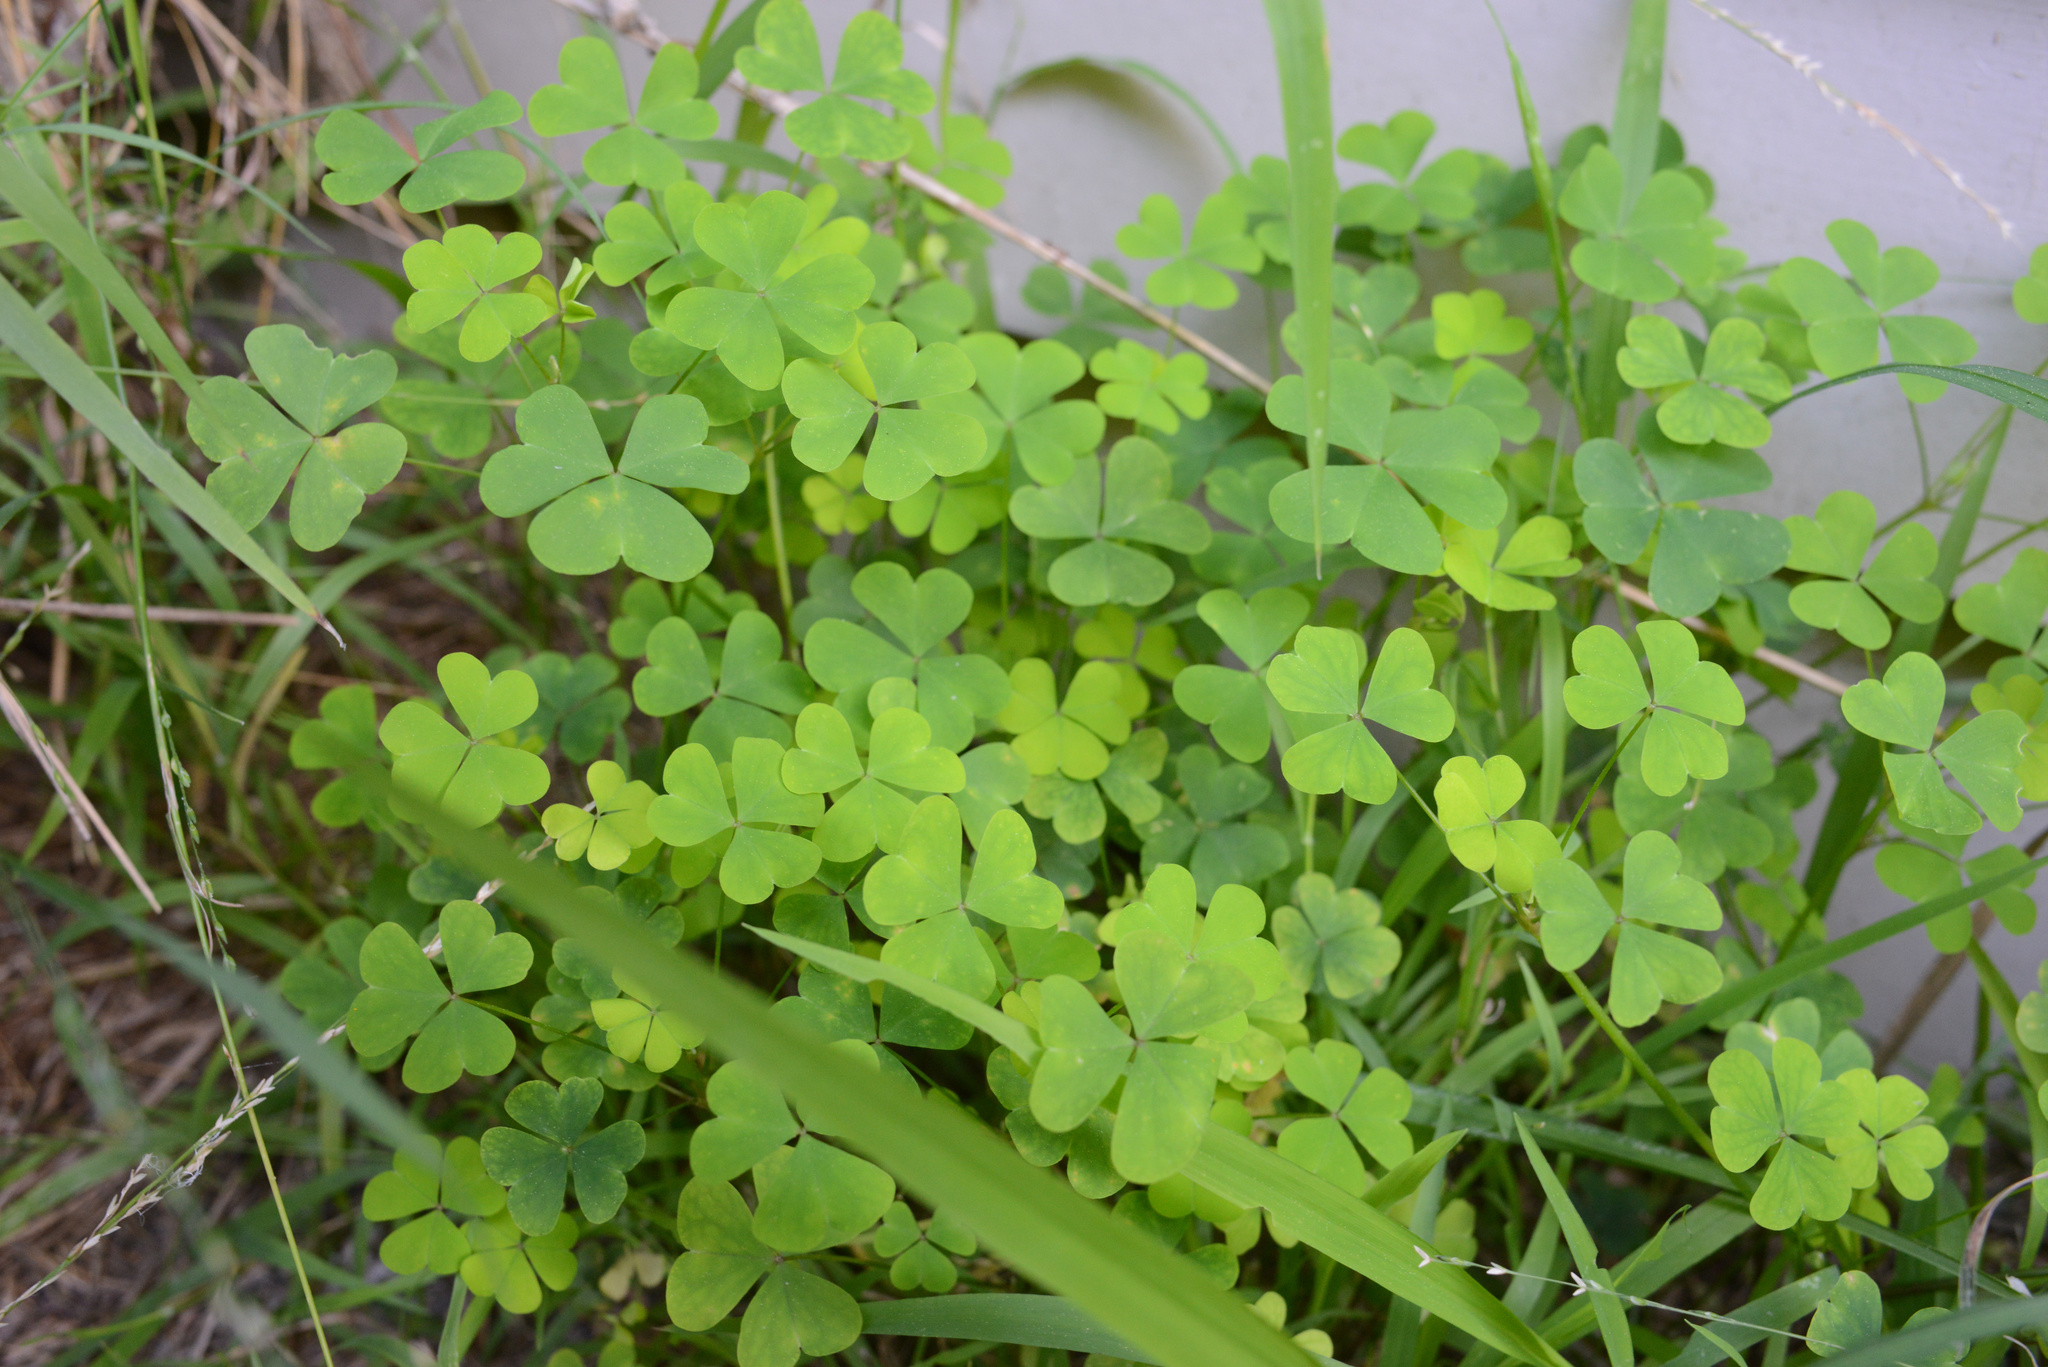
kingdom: Plantae
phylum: Tracheophyta
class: Magnoliopsida
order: Oxalidales
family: Oxalidaceae
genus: Oxalis
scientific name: Oxalis incarnata
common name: Pale pink-sorrel
